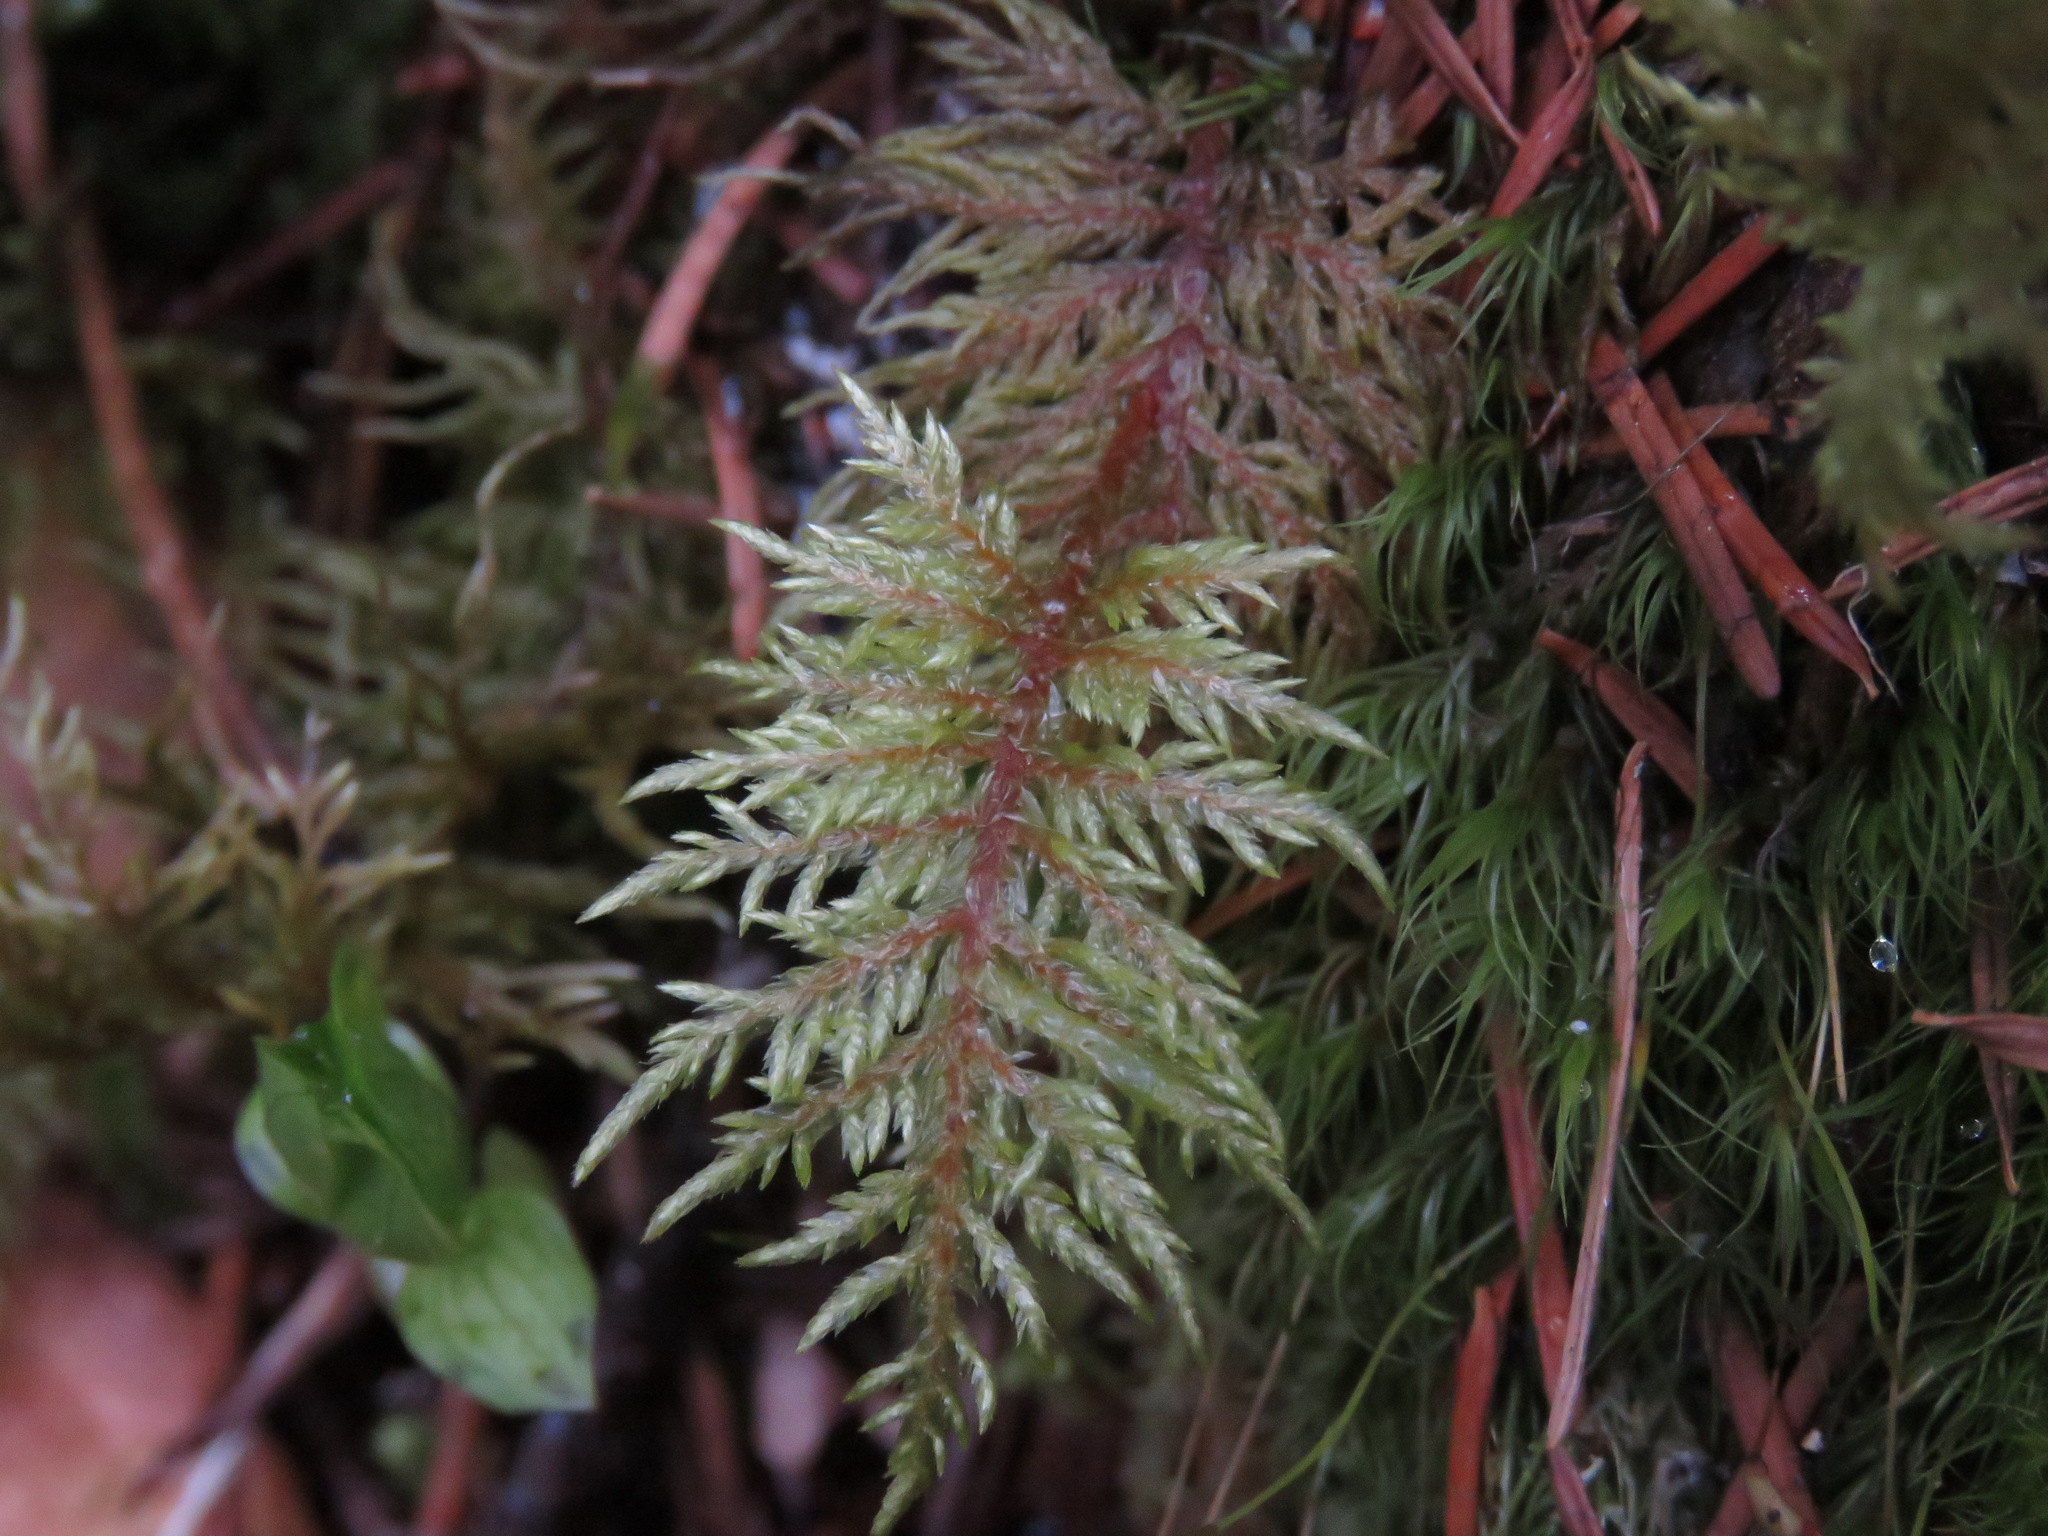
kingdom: Plantae
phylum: Bryophyta
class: Bryopsida
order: Hypnales
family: Hylocomiaceae
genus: Hylocomium
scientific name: Hylocomium splendens
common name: Stairstep moss
